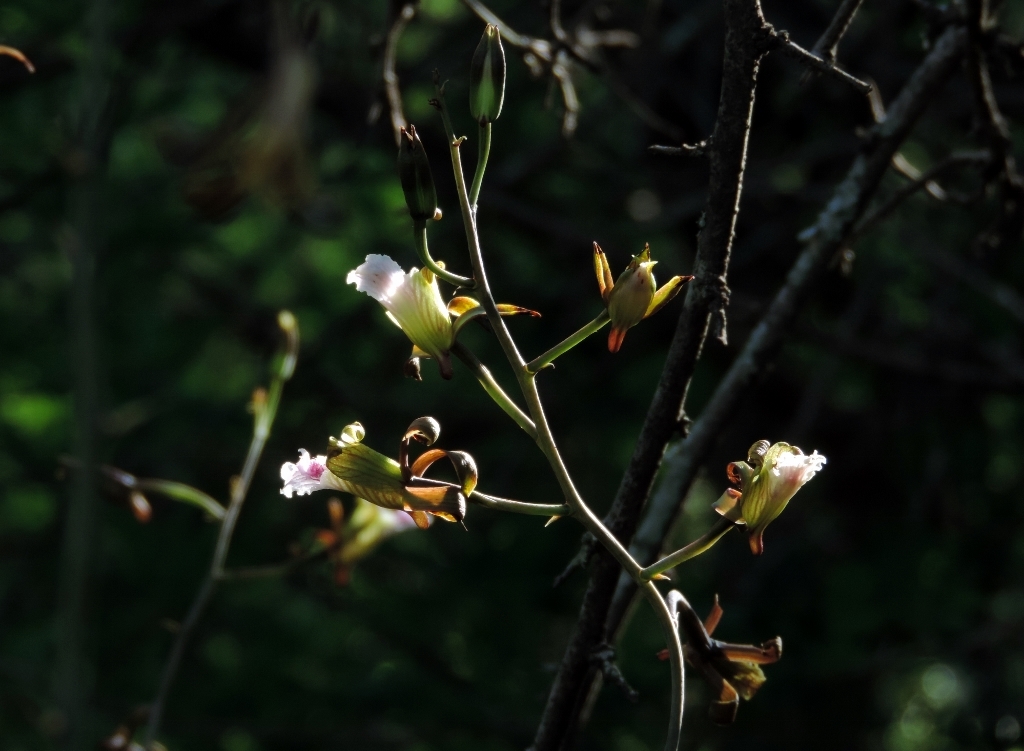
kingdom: Plantae
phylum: Tracheophyta
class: Liliopsida
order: Asparagales
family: Orchidaceae
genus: Eulophia
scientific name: Eulophia petersii
